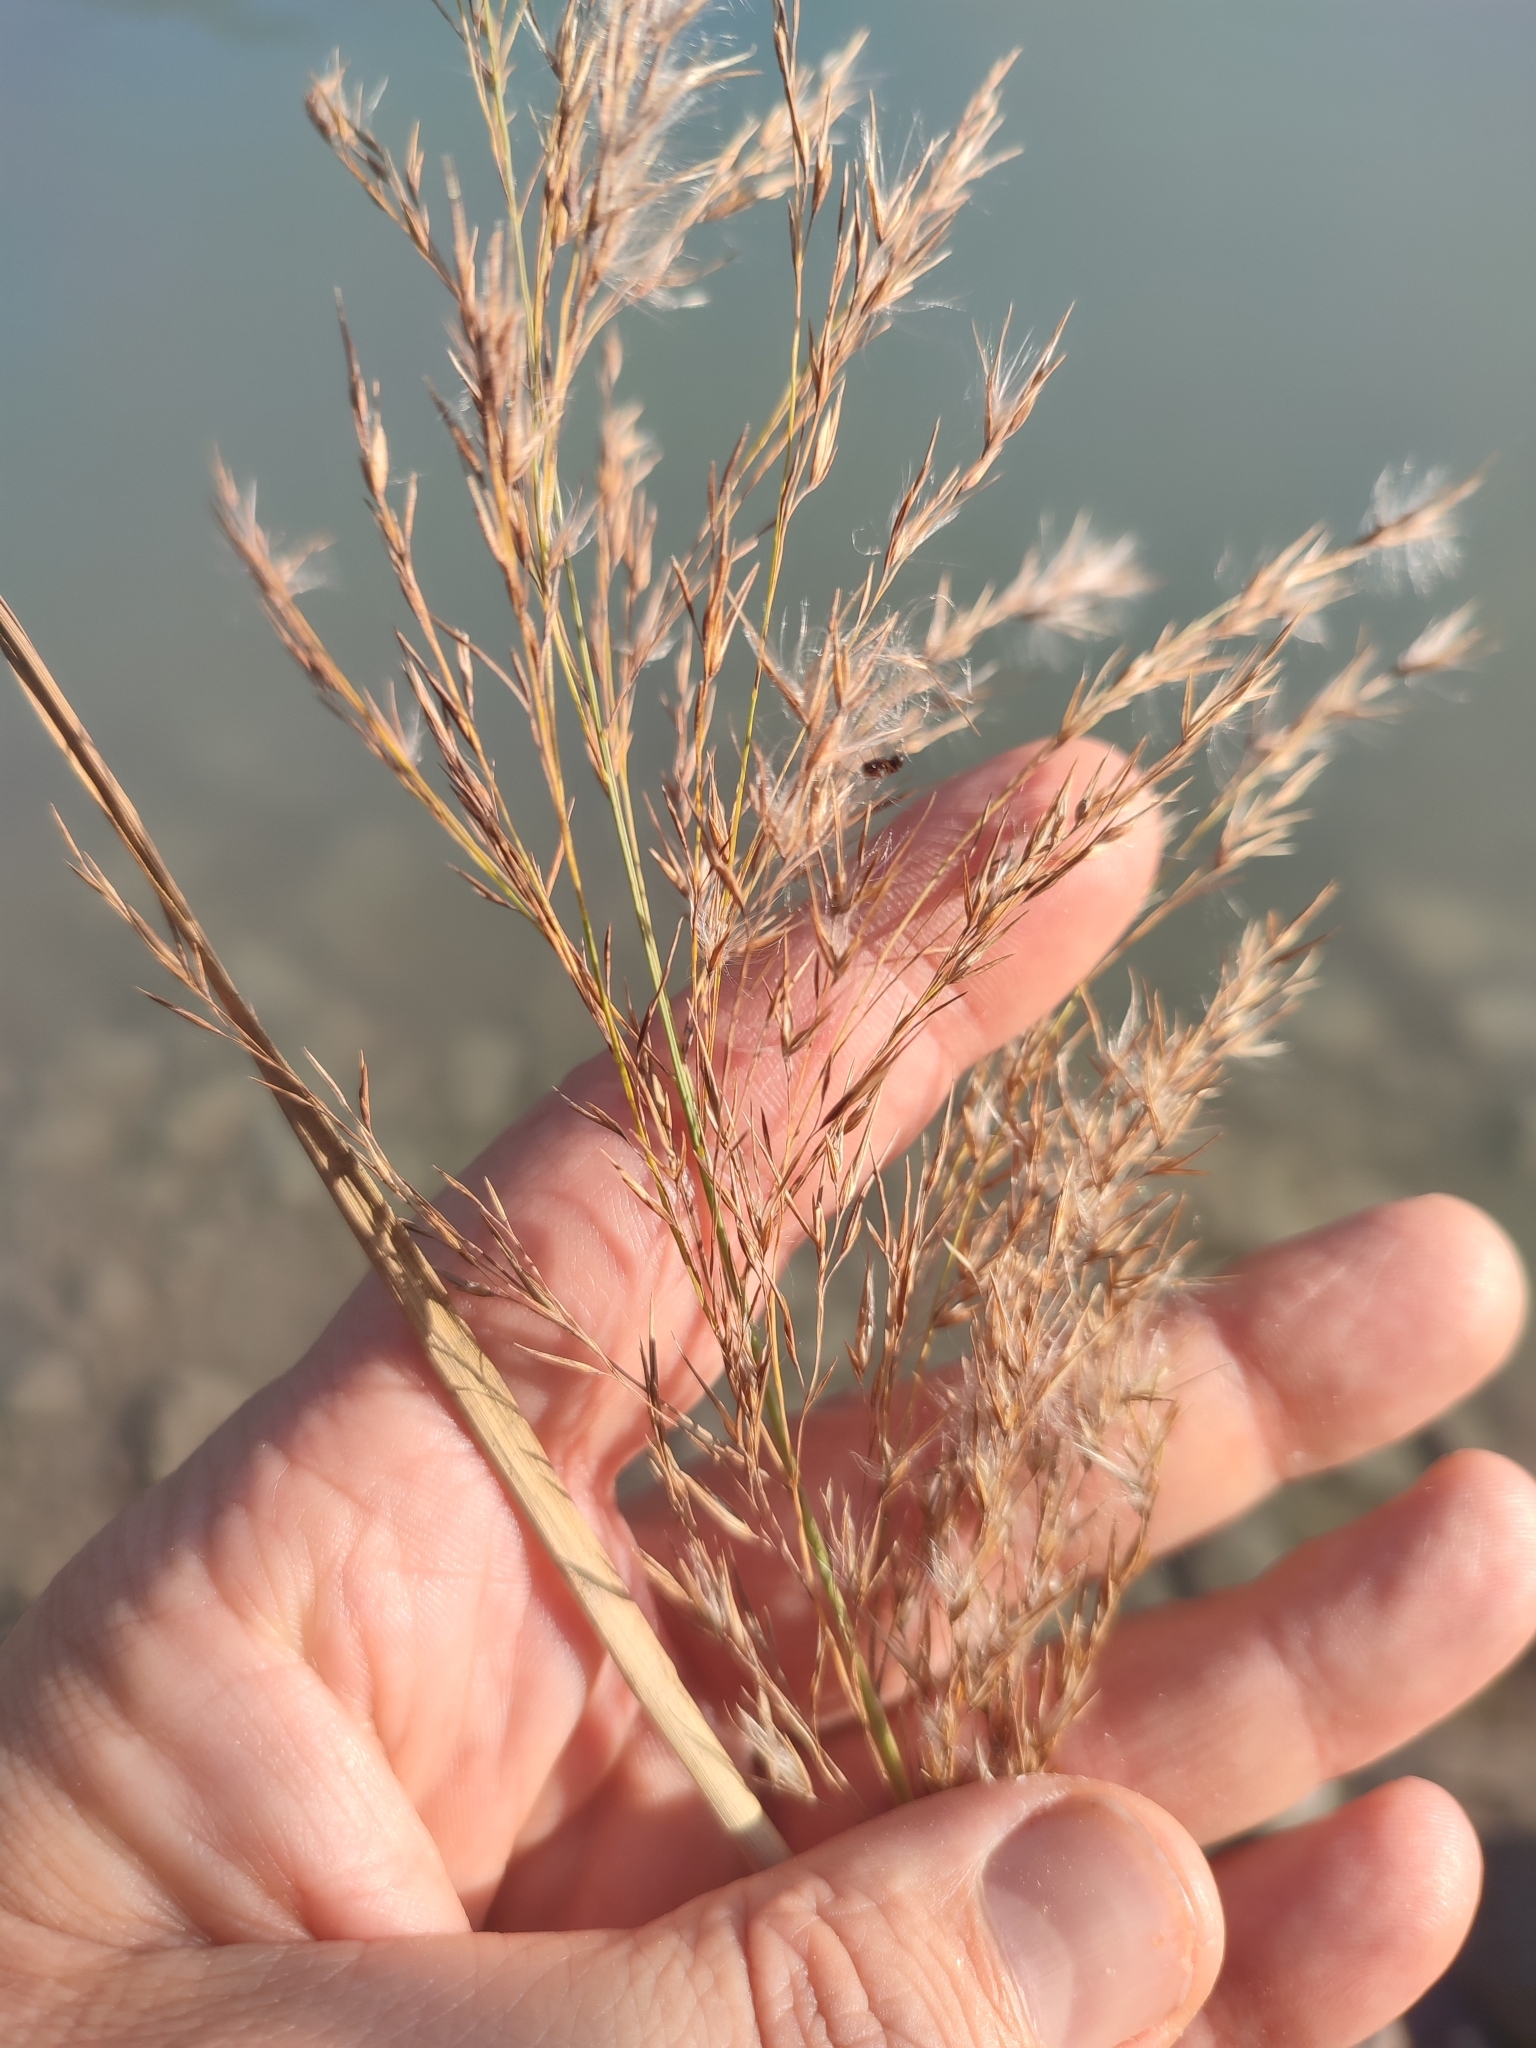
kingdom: Plantae
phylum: Tracheophyta
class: Liliopsida
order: Poales
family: Poaceae
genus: Phragmites
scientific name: Phragmites australis
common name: Common reed
